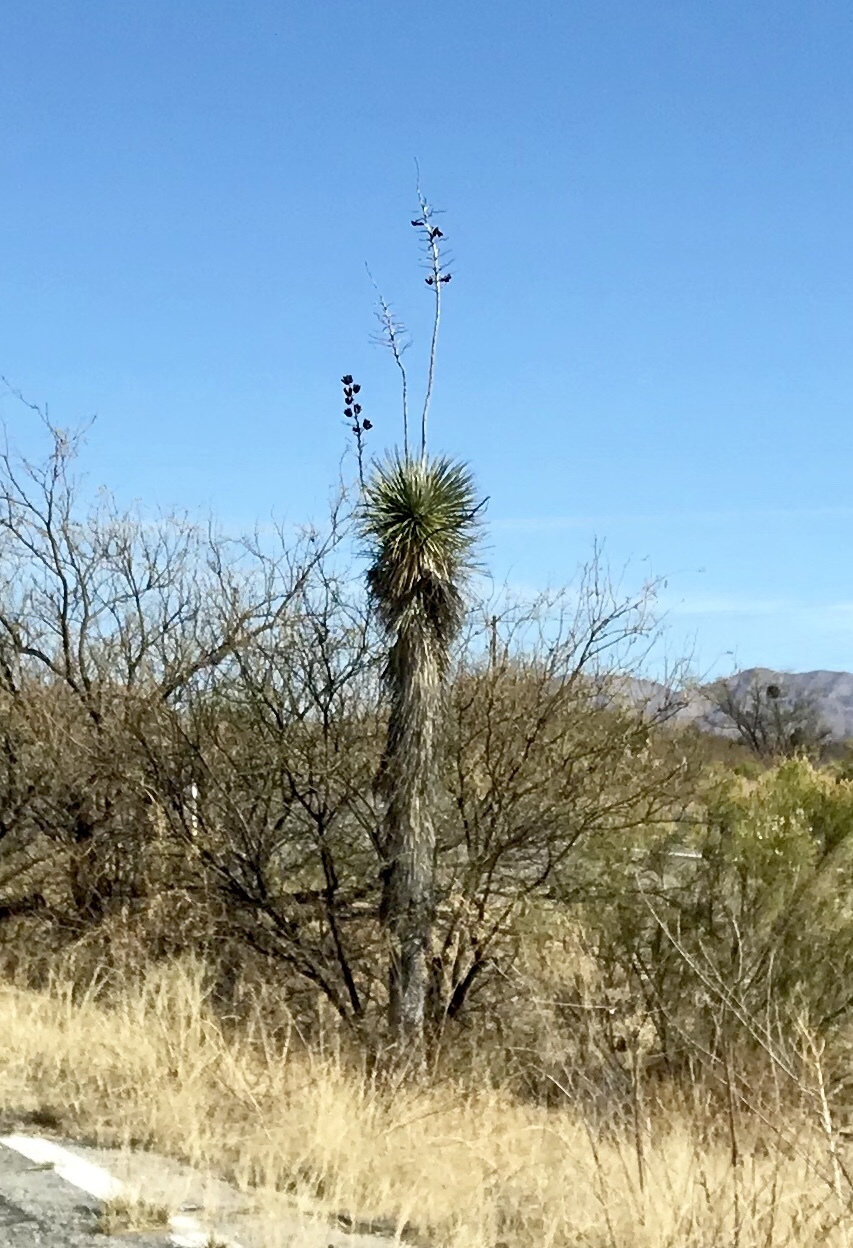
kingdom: Plantae
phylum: Tracheophyta
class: Liliopsida
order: Asparagales
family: Asparagaceae
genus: Yucca
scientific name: Yucca elata
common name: Palmella
